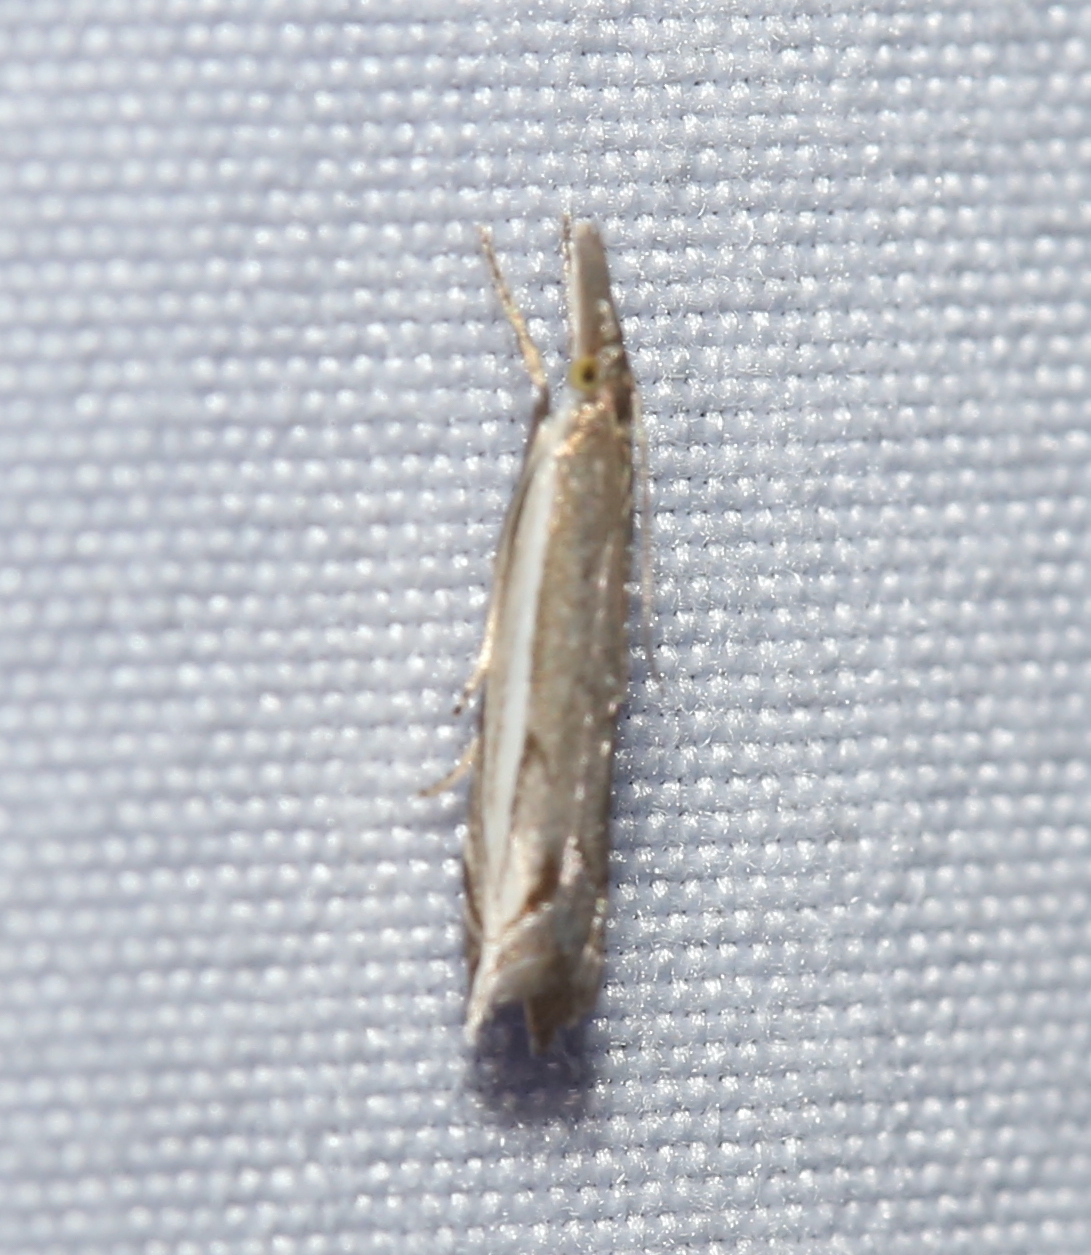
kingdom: Animalia
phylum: Arthropoda
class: Insecta
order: Lepidoptera
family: Crambidae
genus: Raphiptera
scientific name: Raphiptera argillaceellus
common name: Diminutive grass-veneer
